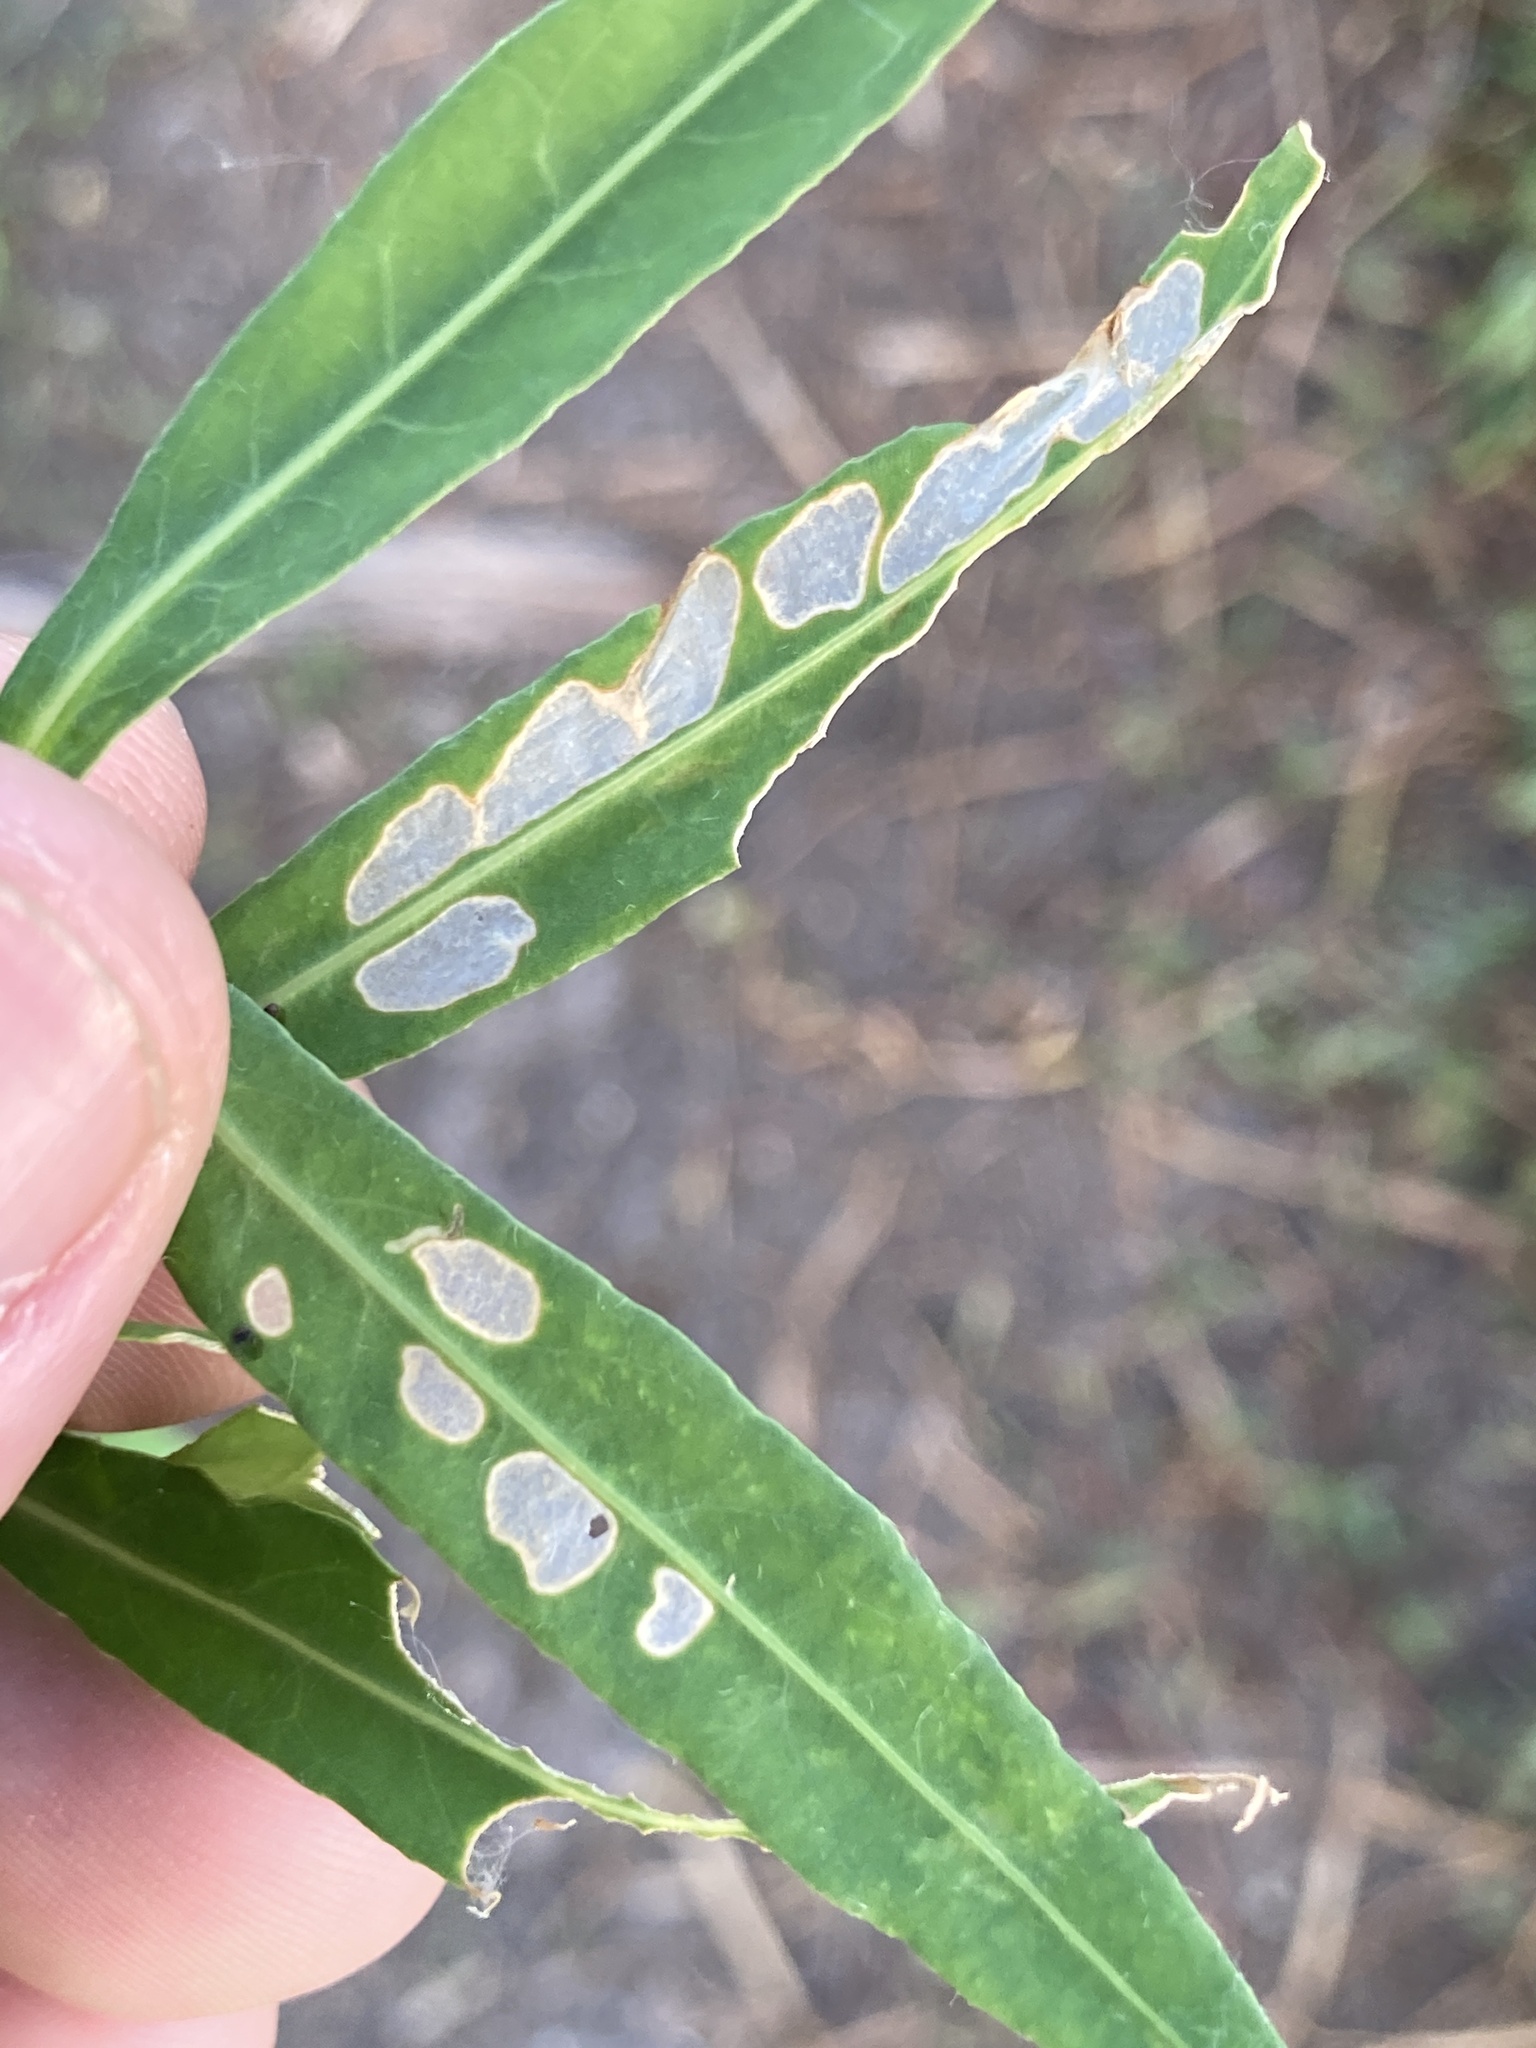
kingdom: Animalia
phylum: Arthropoda
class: Insecta
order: Lepidoptera
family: Crambidae
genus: Herpetogramma
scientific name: Herpetogramma bipunctalis
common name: Southern beet webworm
